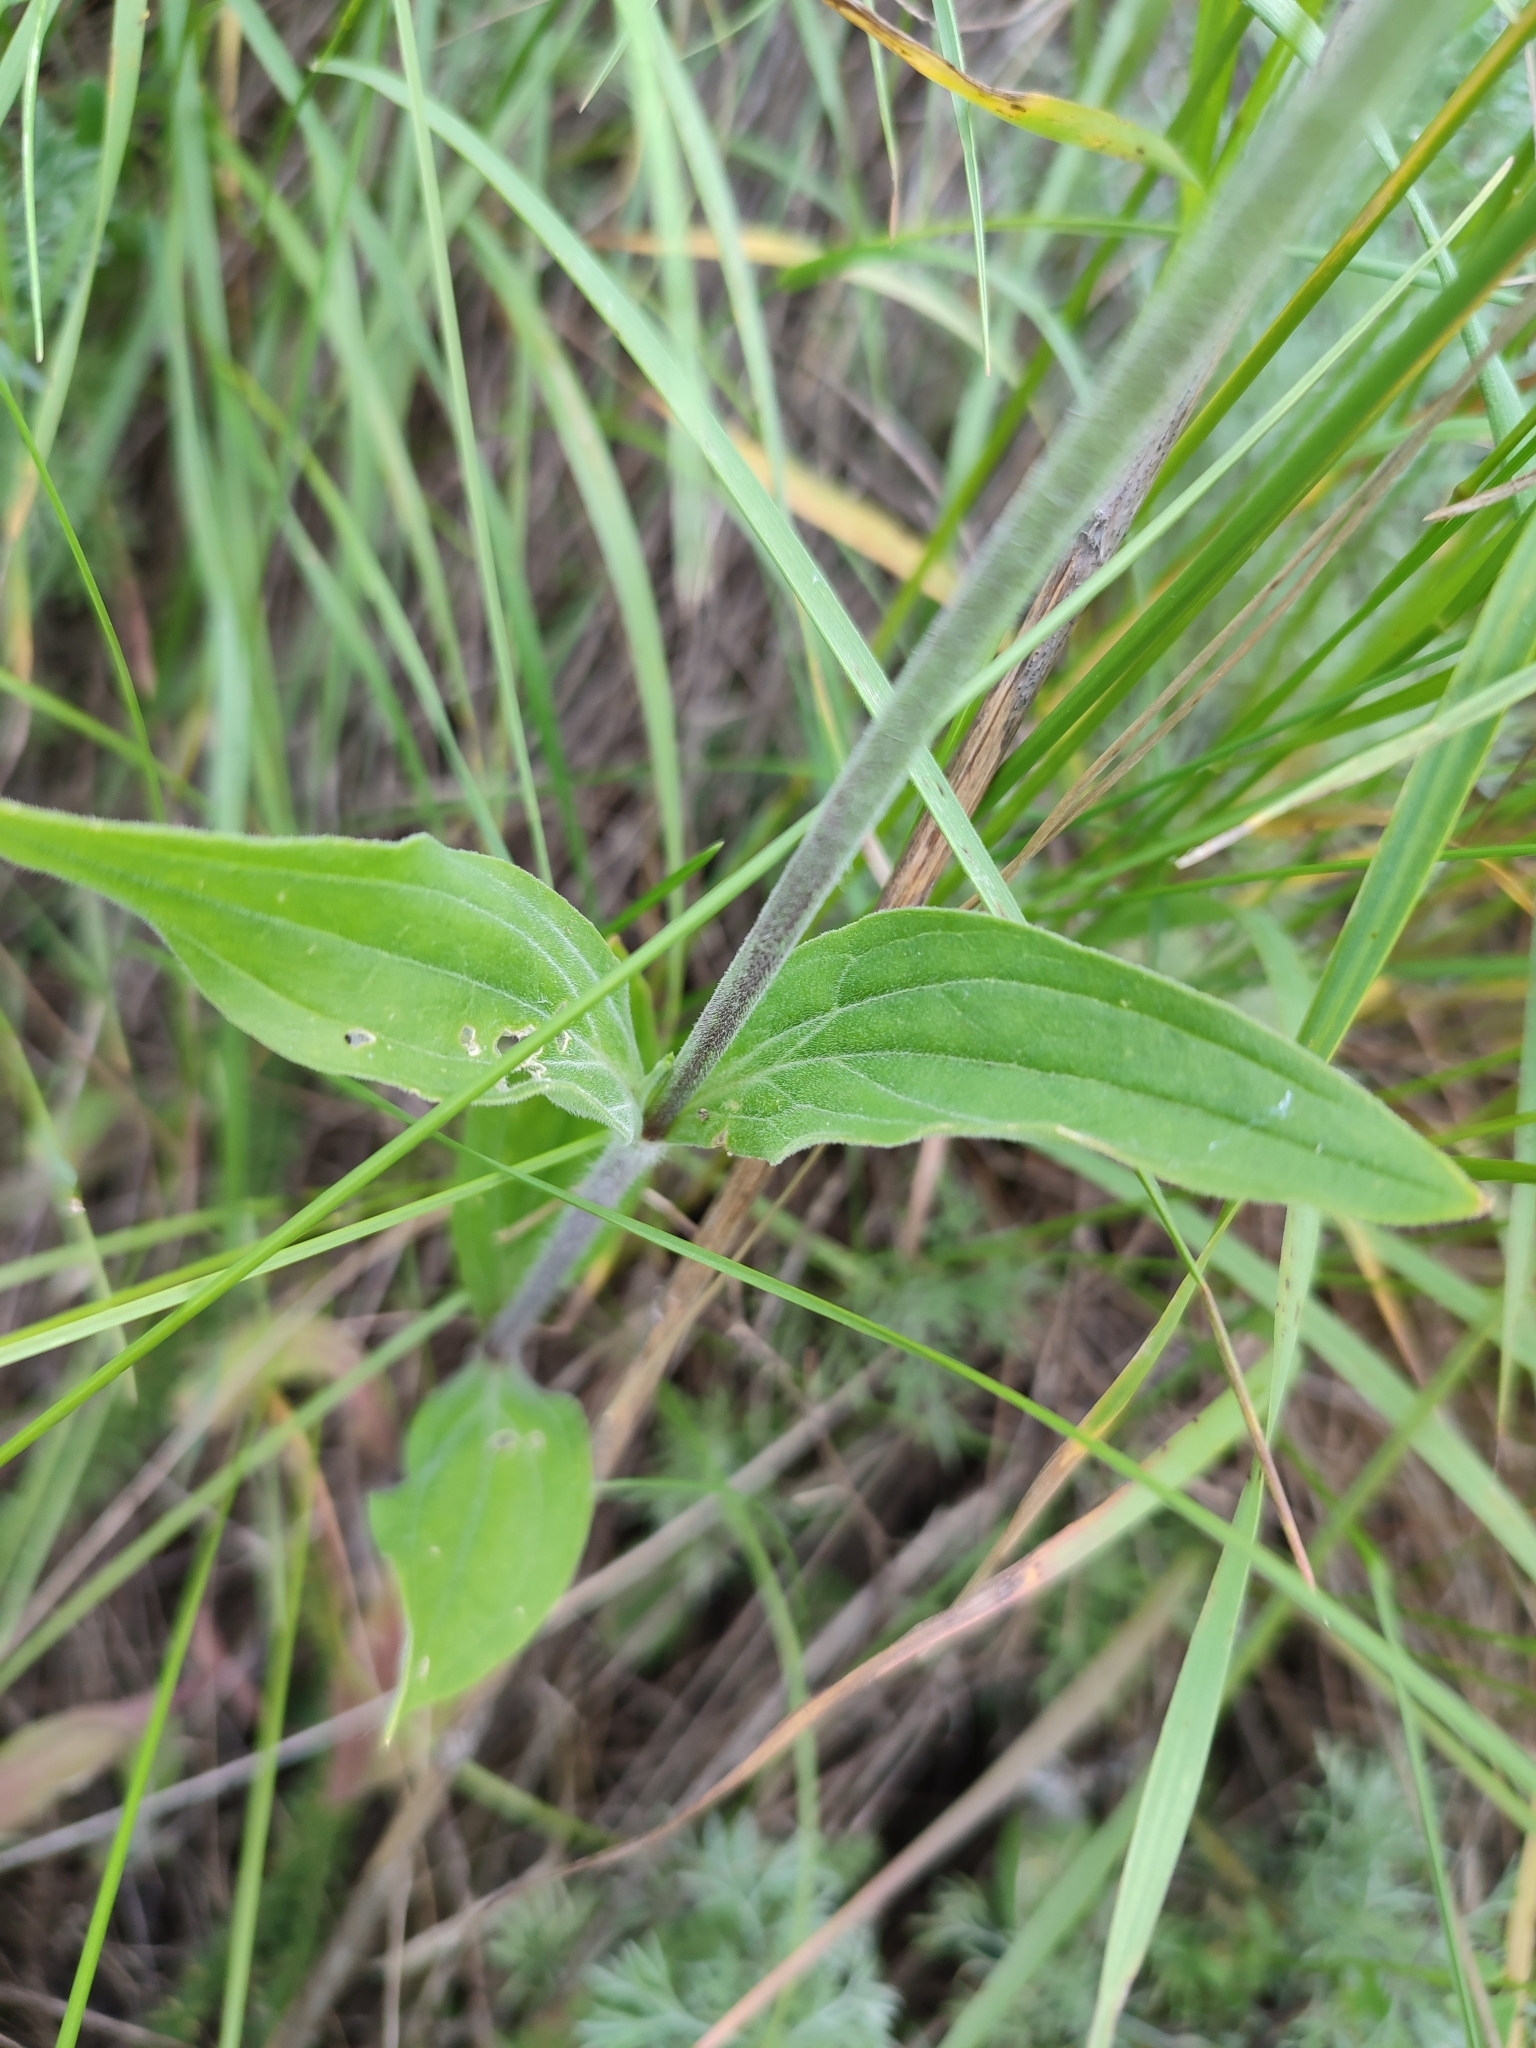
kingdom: Plantae
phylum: Tracheophyta
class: Magnoliopsida
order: Caryophyllales
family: Caryophyllaceae
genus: Silene
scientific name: Silene latifolia
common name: White campion
